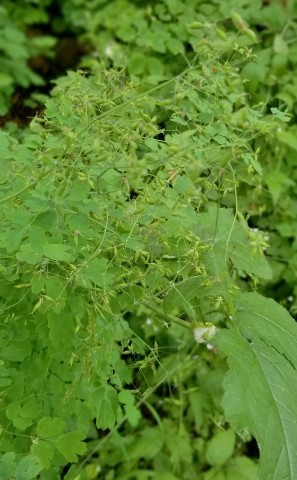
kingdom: Plantae
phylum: Tracheophyta
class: Magnoliopsida
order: Ranunculales
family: Ranunculaceae
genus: Thalictrum
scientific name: Thalictrum occidentale
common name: Western meadow-rue
